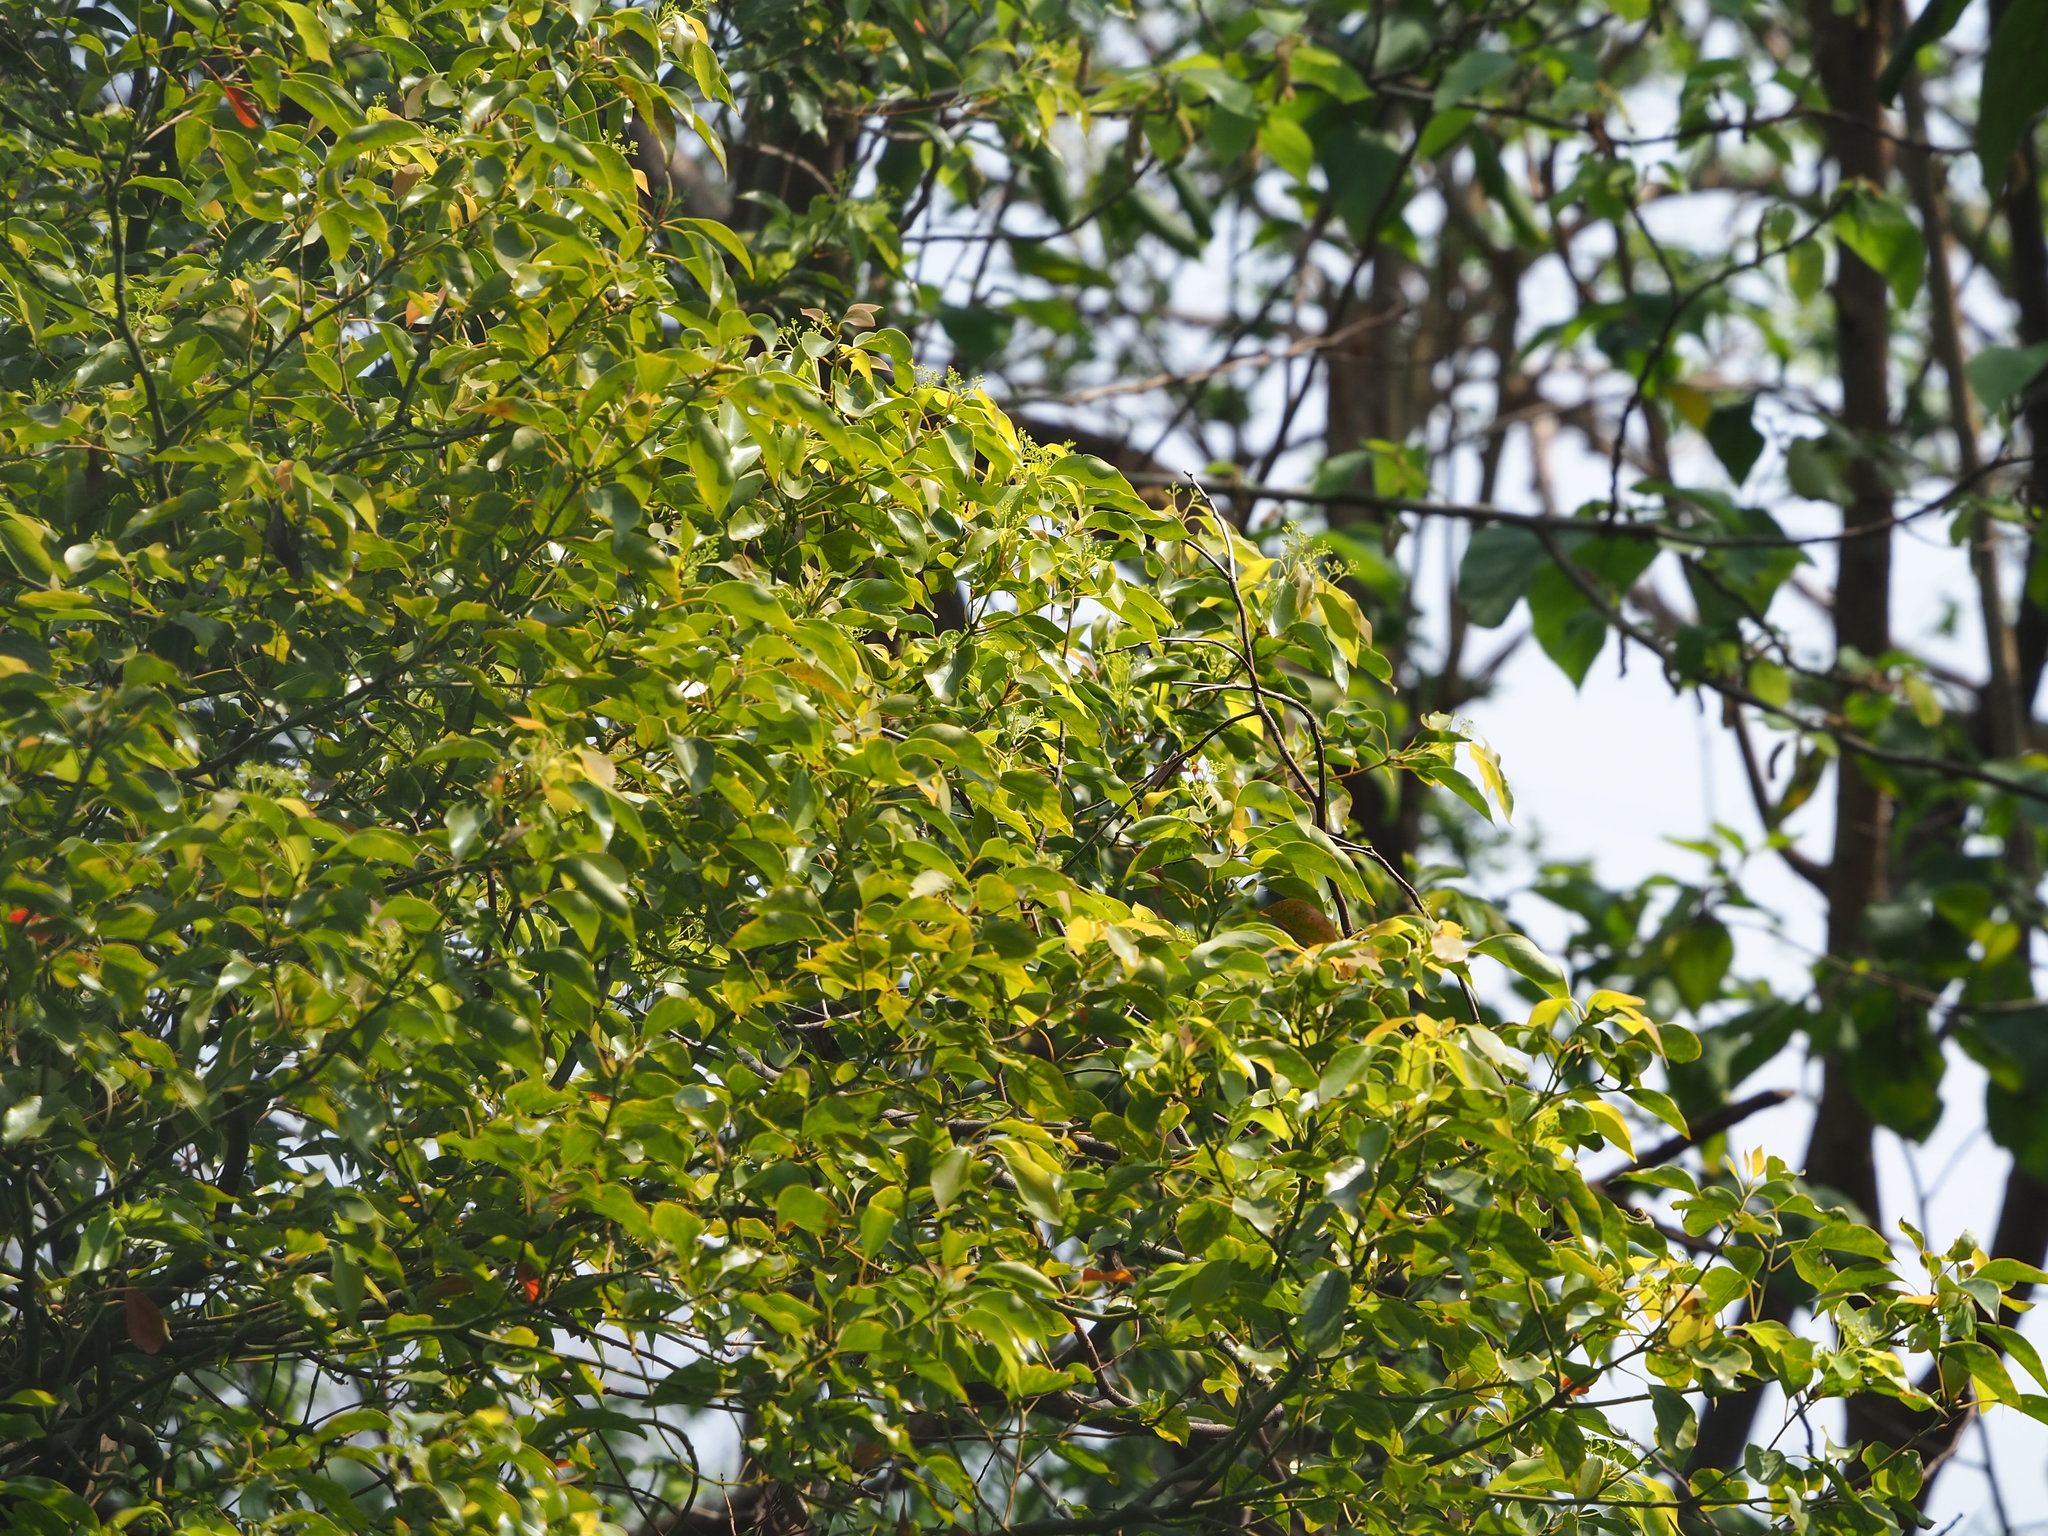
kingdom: Plantae
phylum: Tracheophyta
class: Magnoliopsida
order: Laurales
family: Lauraceae
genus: Cinnamomum
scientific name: Cinnamomum camphora
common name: Camphortree
